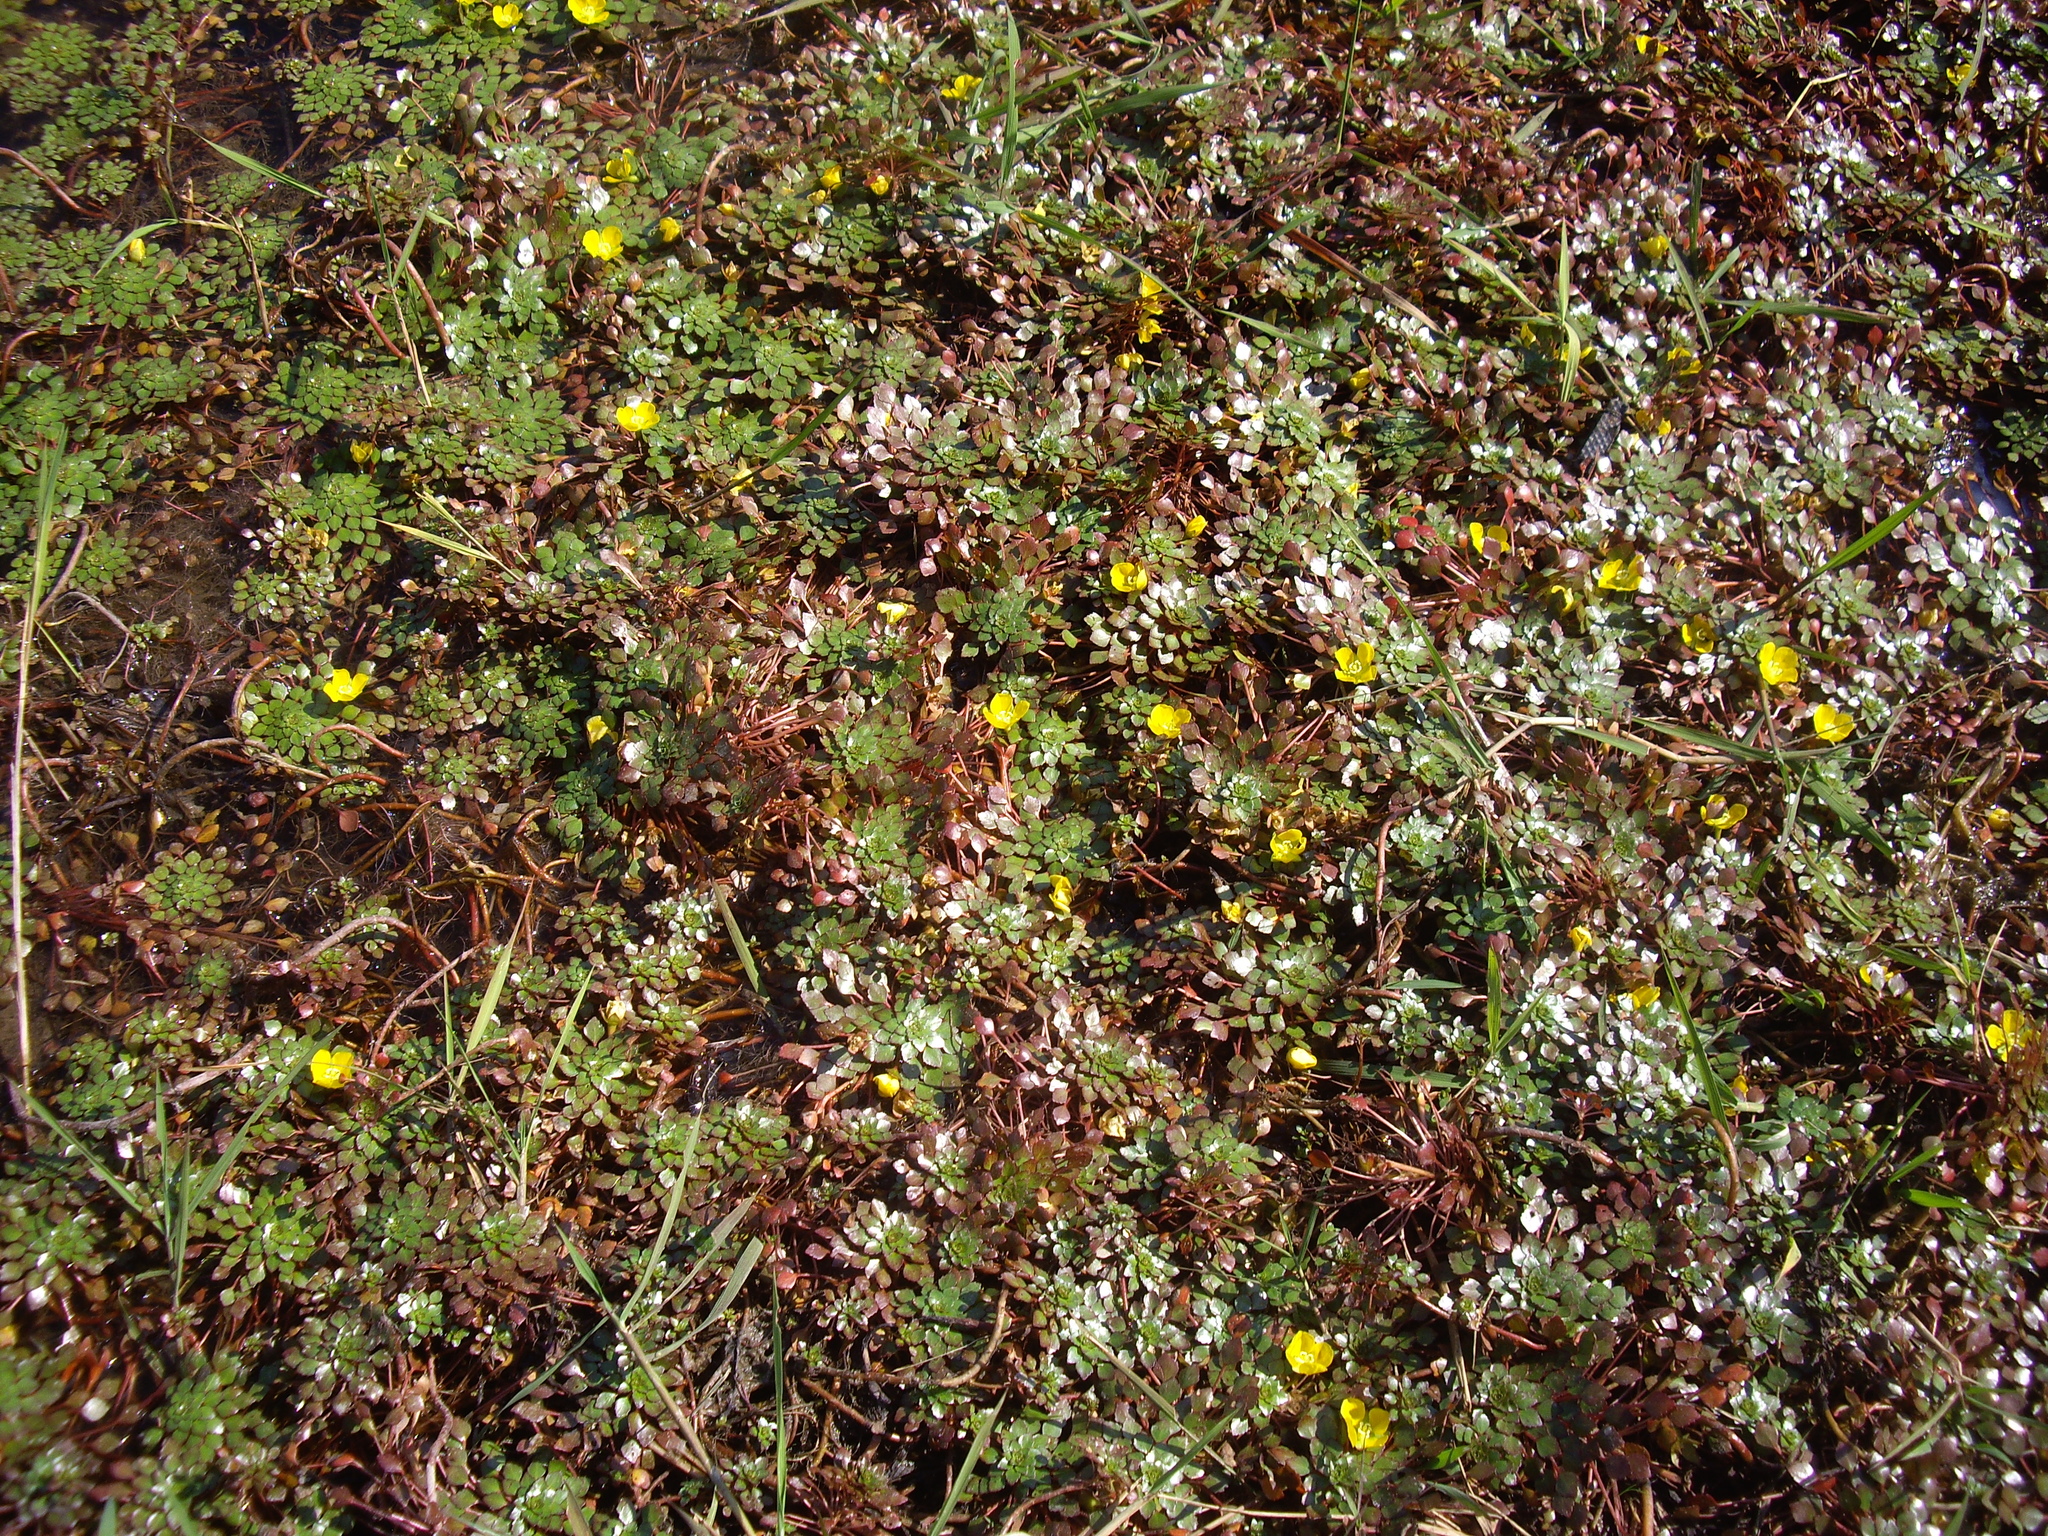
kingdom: Plantae
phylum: Tracheophyta
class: Magnoliopsida
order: Myrtales
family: Onagraceae
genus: Ludwigia
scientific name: Ludwigia sedioides
